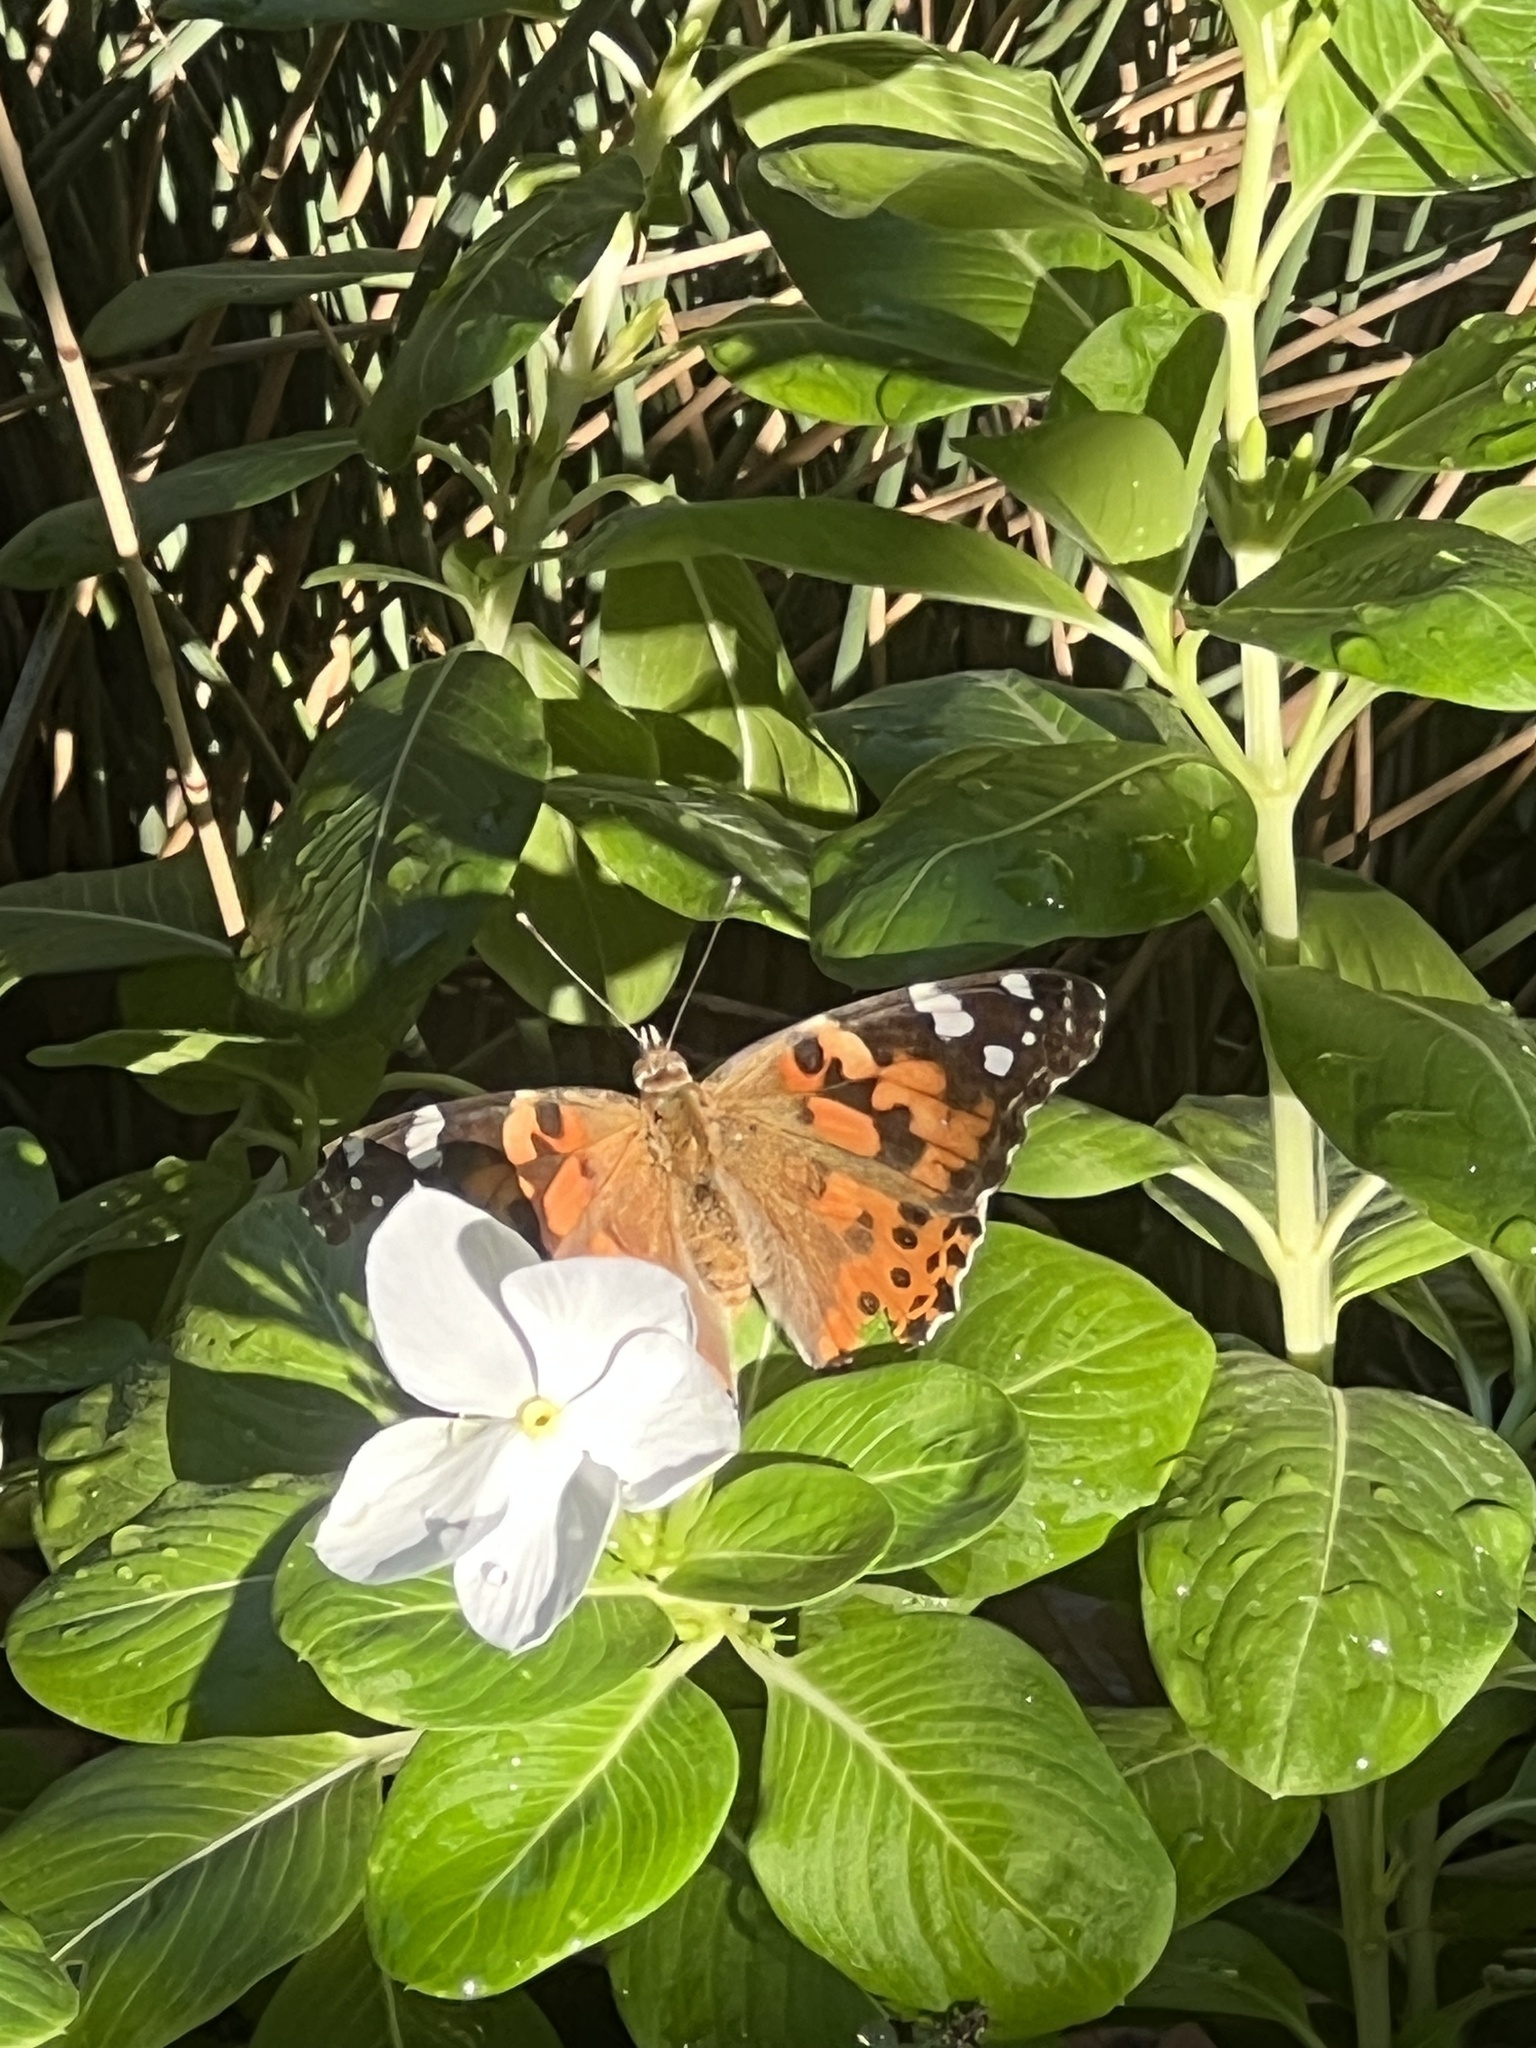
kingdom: Animalia
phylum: Arthropoda
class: Insecta
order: Lepidoptera
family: Nymphalidae
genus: Vanessa
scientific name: Vanessa cardui
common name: Painted lady
